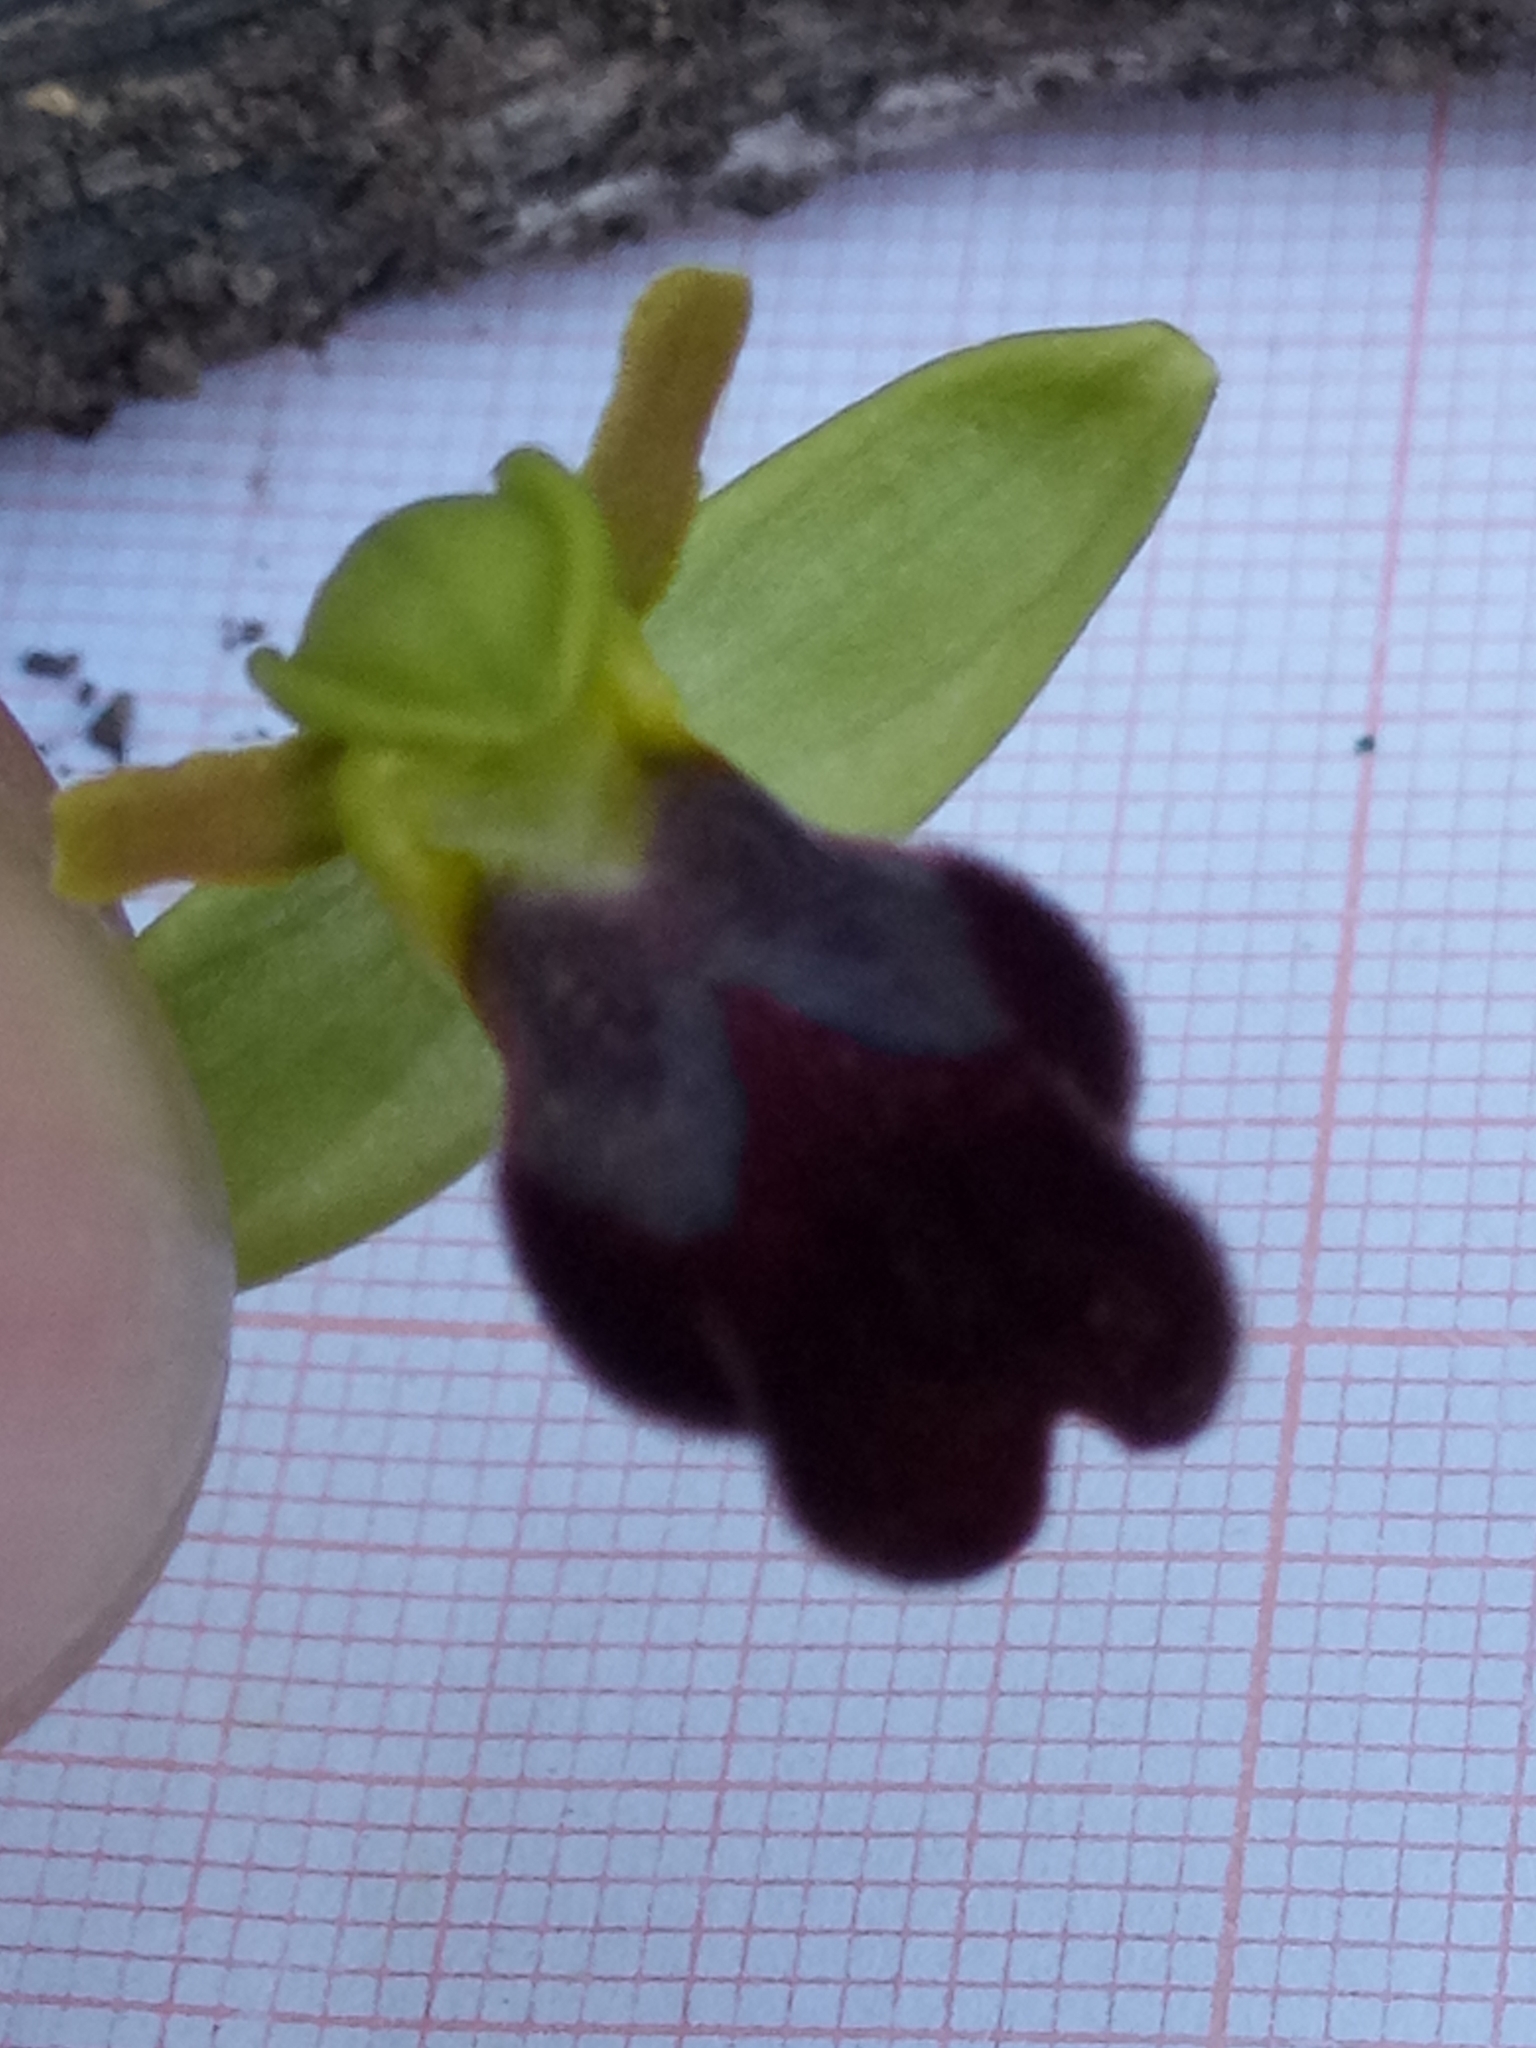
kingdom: Plantae
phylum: Tracheophyta
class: Liliopsida
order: Asparagales
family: Orchidaceae
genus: Ophrys
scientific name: Ophrys fusca
